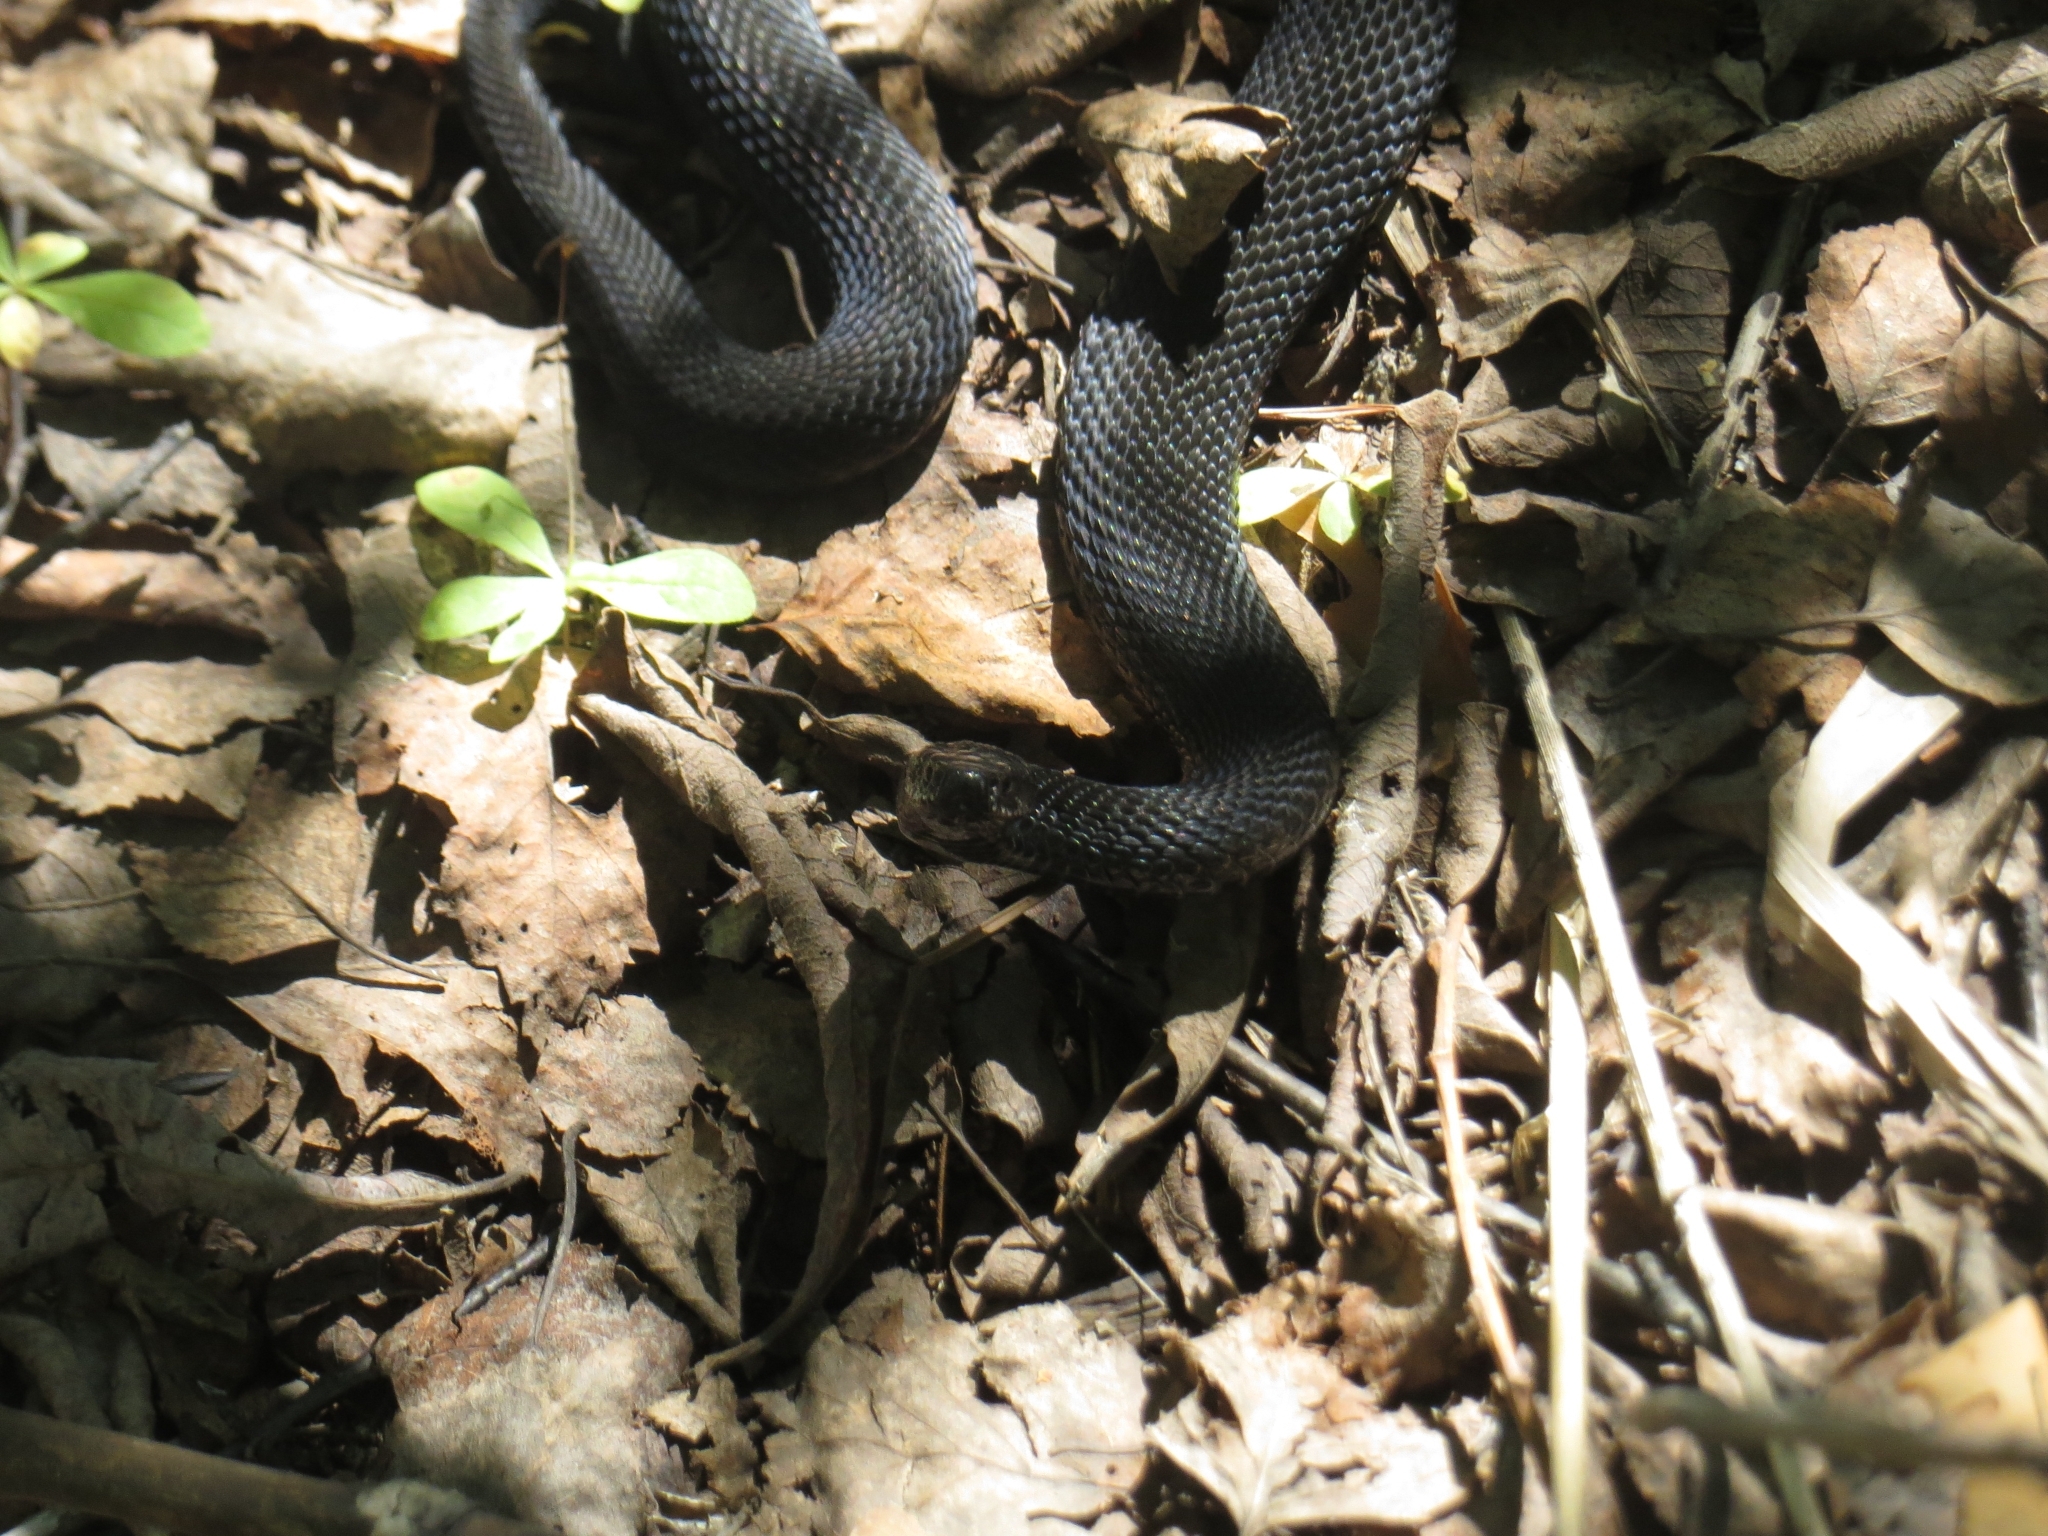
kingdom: Animalia
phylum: Chordata
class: Squamata
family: Viperidae
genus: Vipera
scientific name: Vipera berus
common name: Adder
